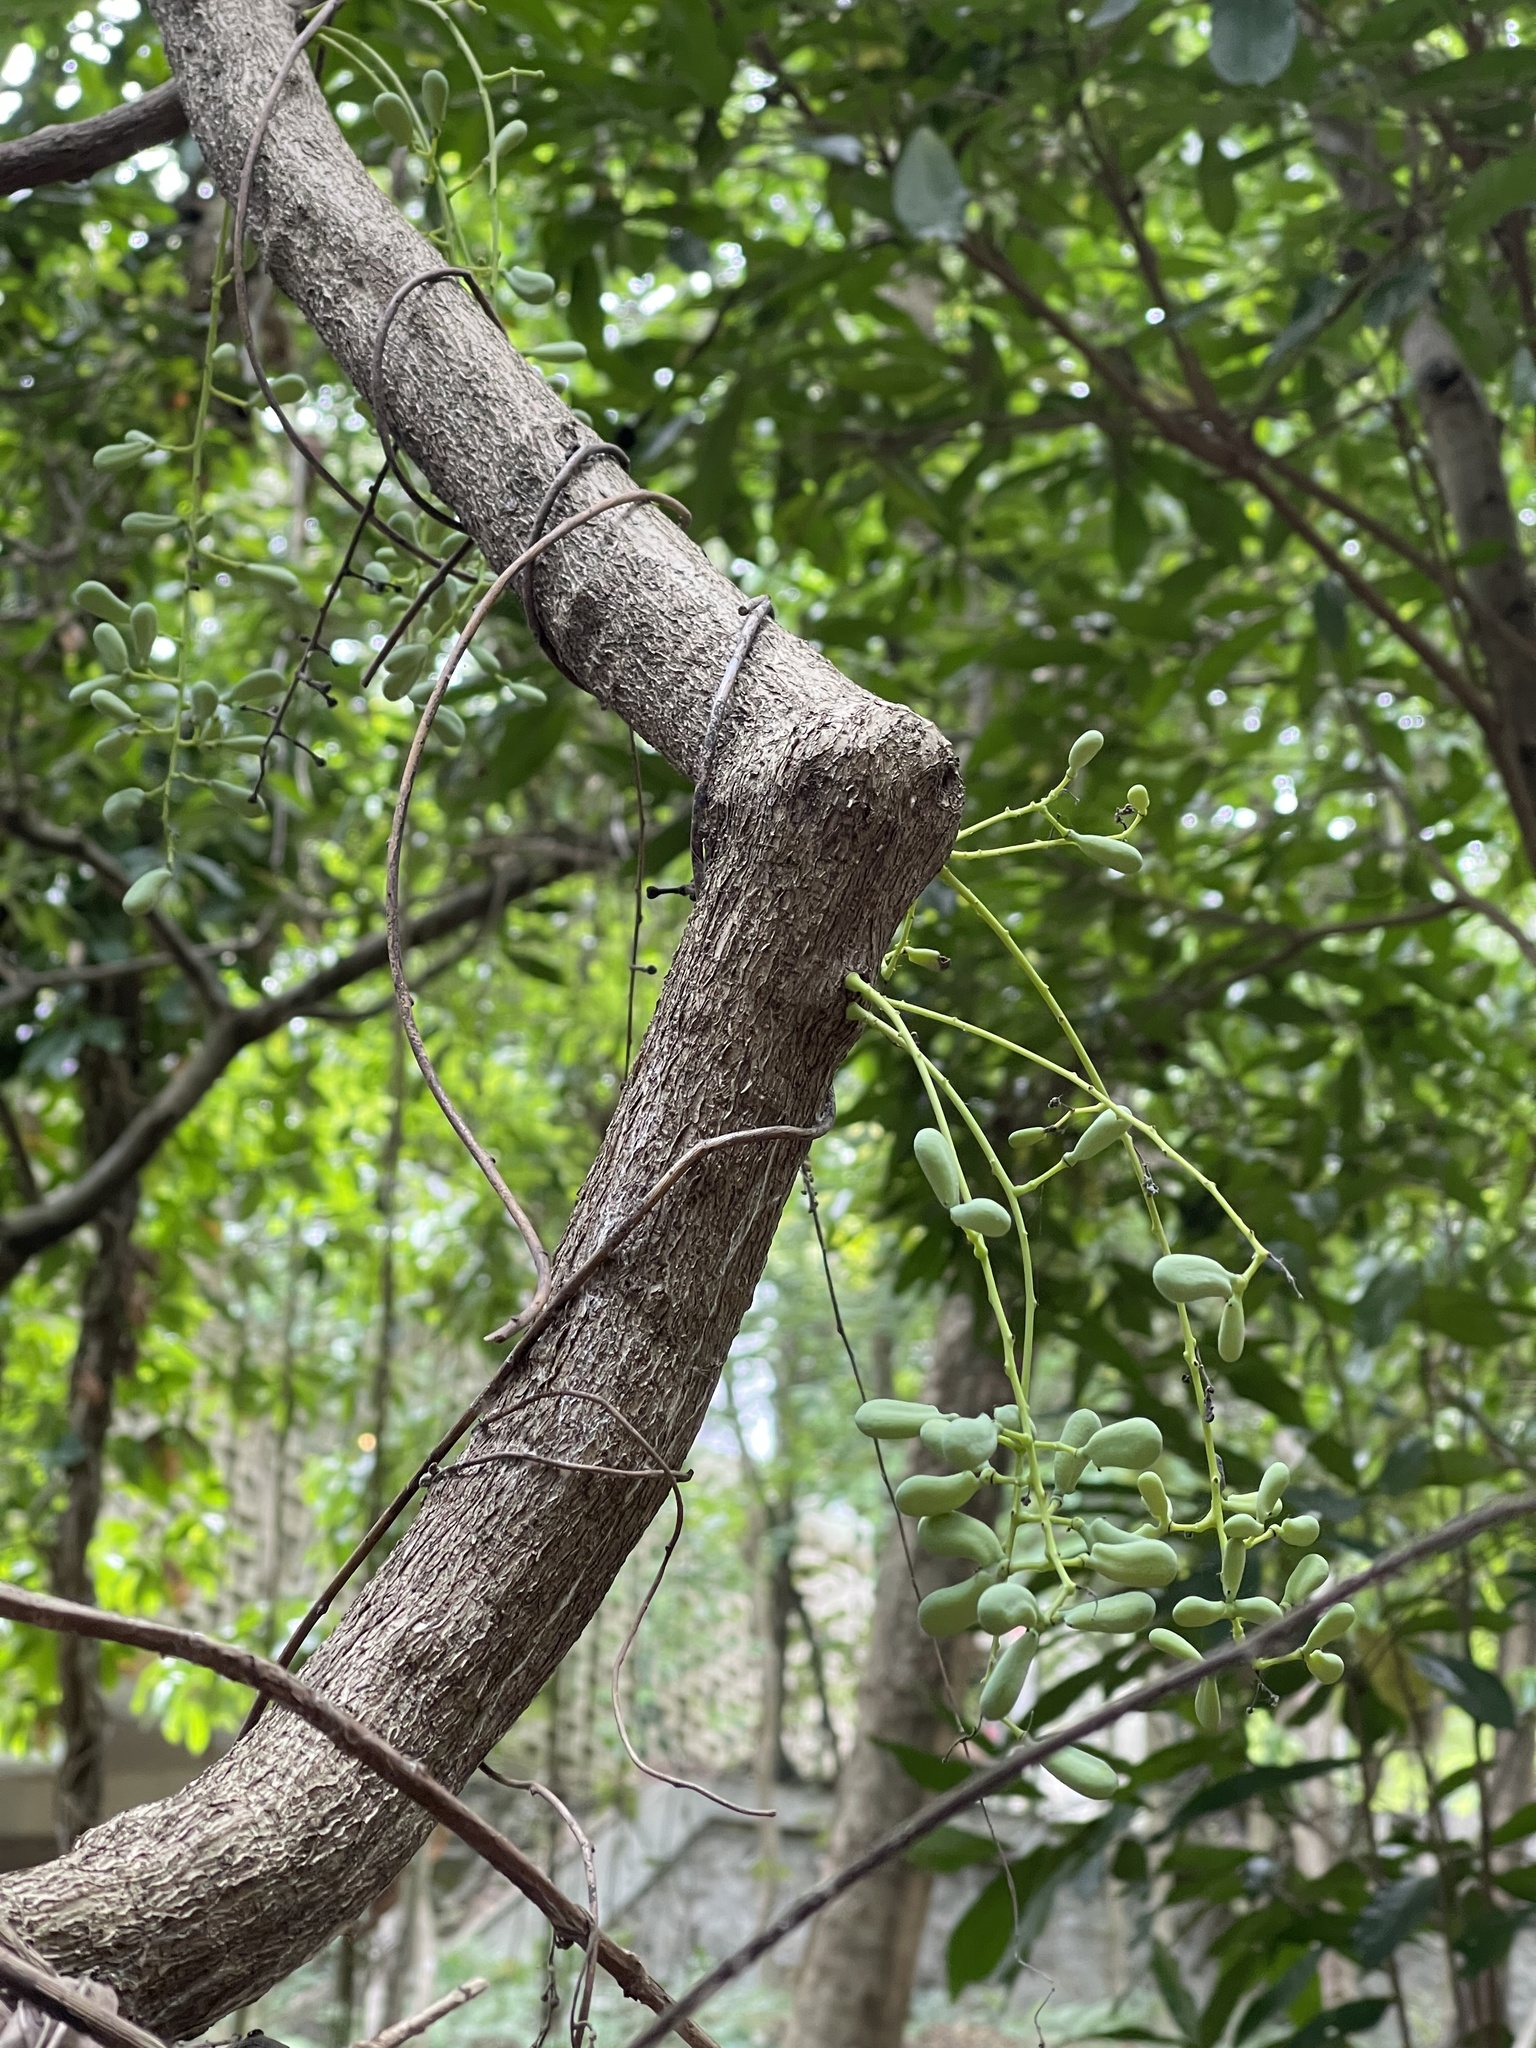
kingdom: Plantae
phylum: Tracheophyta
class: Magnoliopsida
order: Ranunculales
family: Menispermaceae
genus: Diploclisia
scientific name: Diploclisia glaucescens
